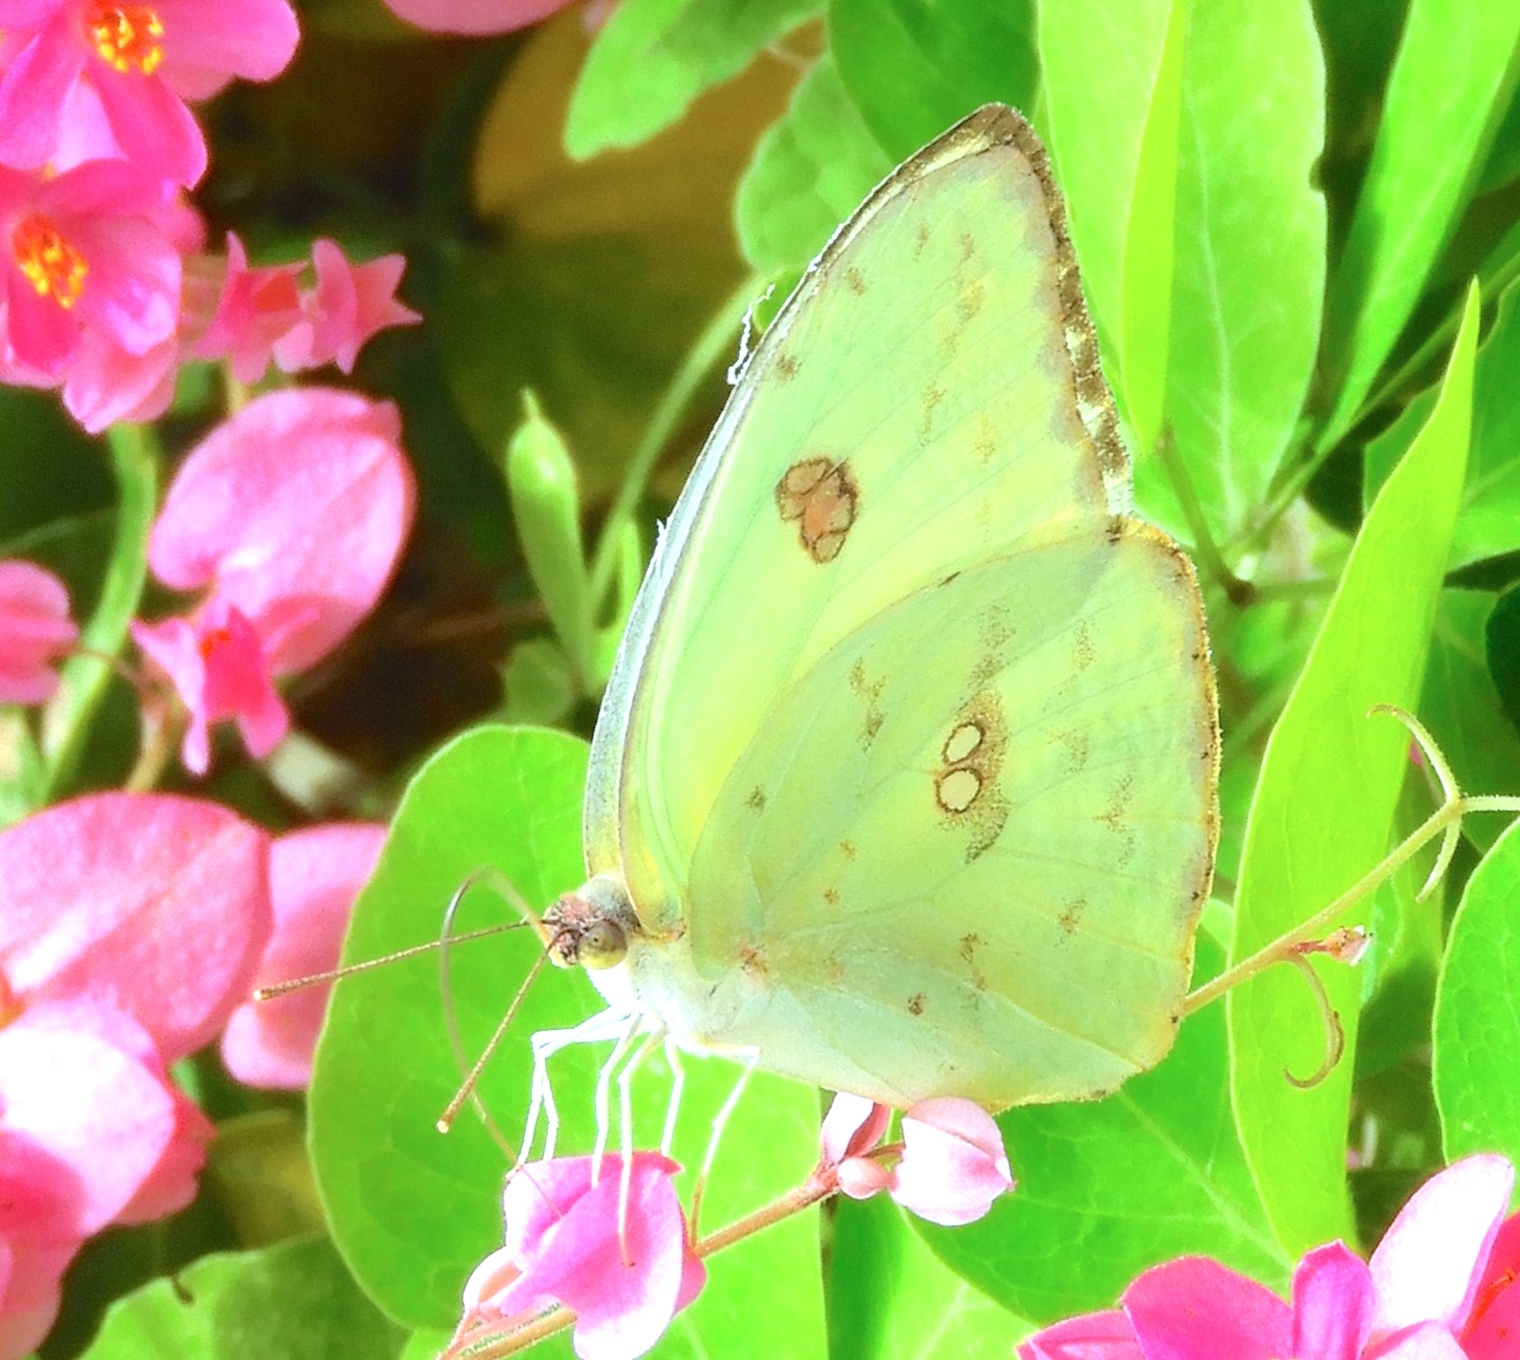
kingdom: Animalia
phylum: Arthropoda
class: Insecta
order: Lepidoptera
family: Pieridae
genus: Phoebis
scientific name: Phoebis marcellina
